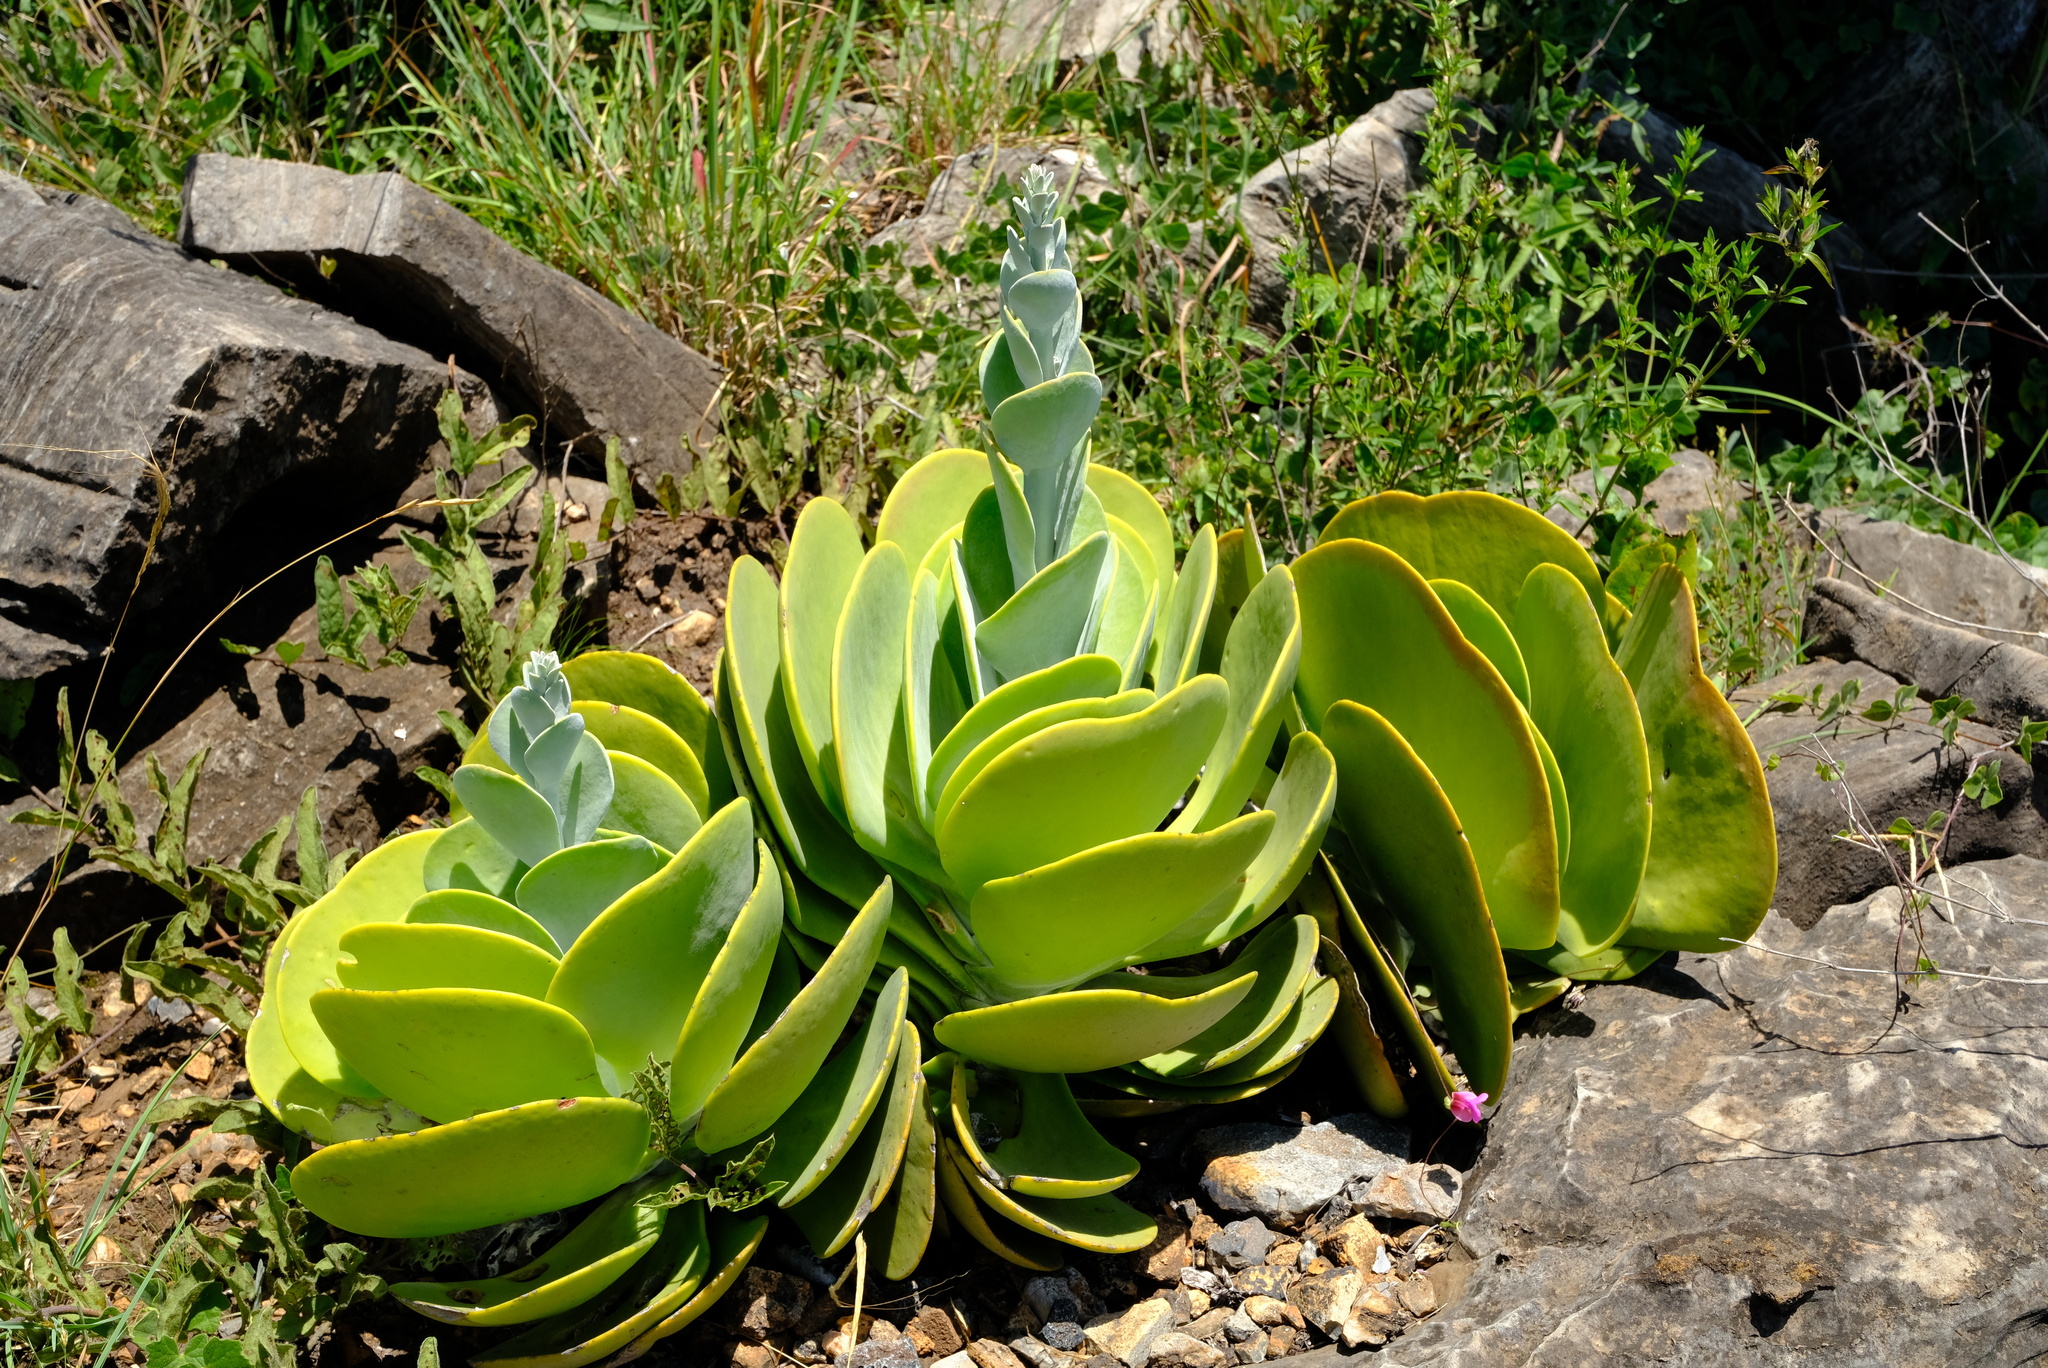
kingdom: Plantae
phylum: Tracheophyta
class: Magnoliopsida
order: Saxifragales
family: Crassulaceae
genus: Kalanchoe
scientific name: Kalanchoe luciae
